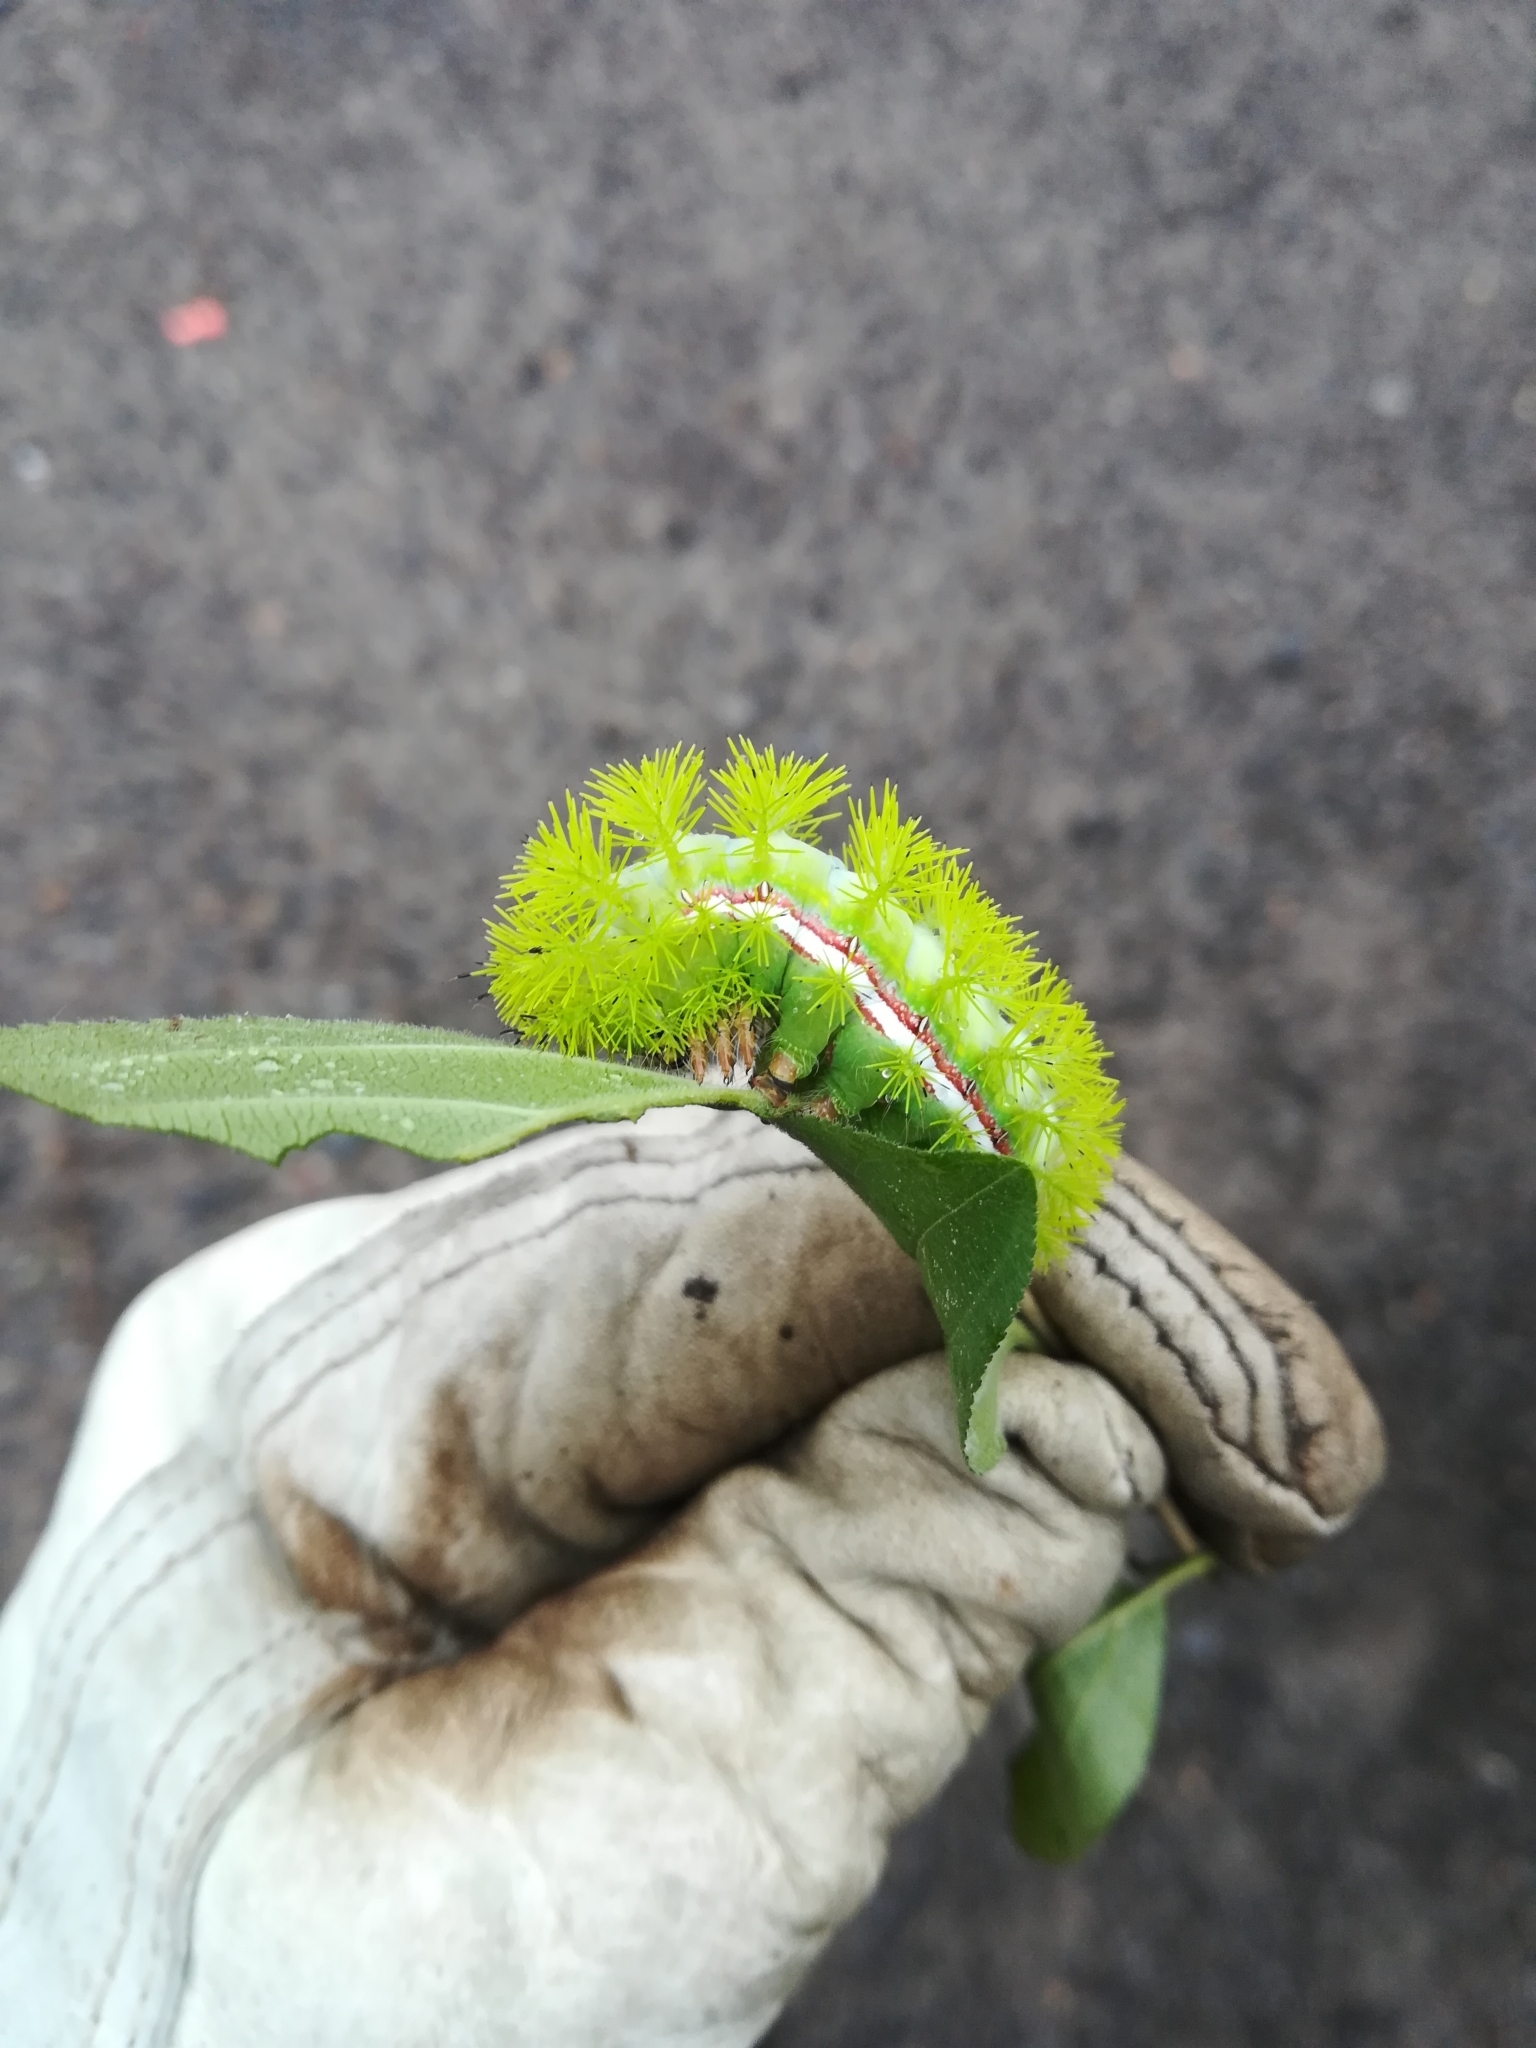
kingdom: Animalia
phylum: Arthropoda
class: Insecta
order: Lepidoptera
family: Saturniidae
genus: Automeris
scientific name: Automeris io
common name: Io moth
